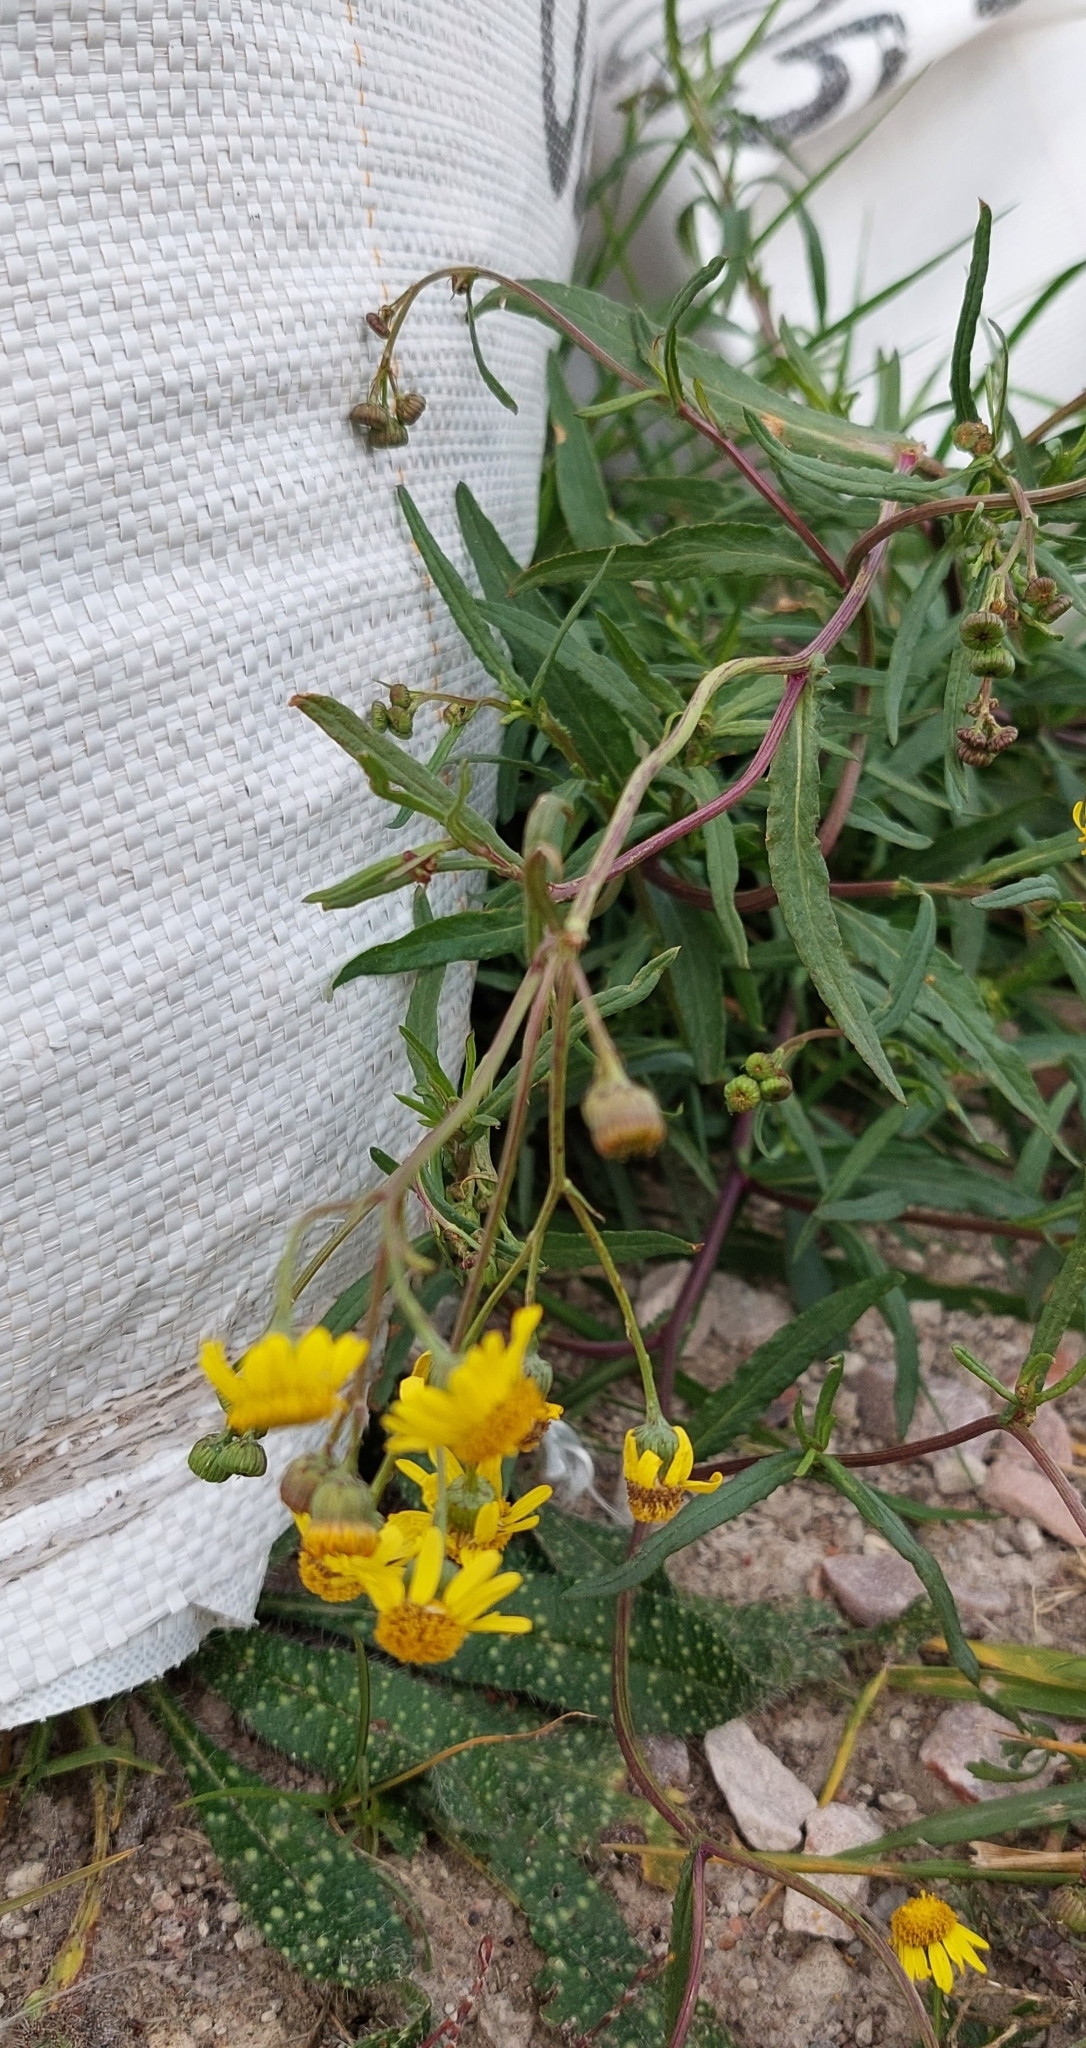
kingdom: Plantae
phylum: Tracheophyta
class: Magnoliopsida
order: Asterales
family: Asteraceae
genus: Senecio
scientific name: Senecio madagascariensis
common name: Madagascar ragwort
